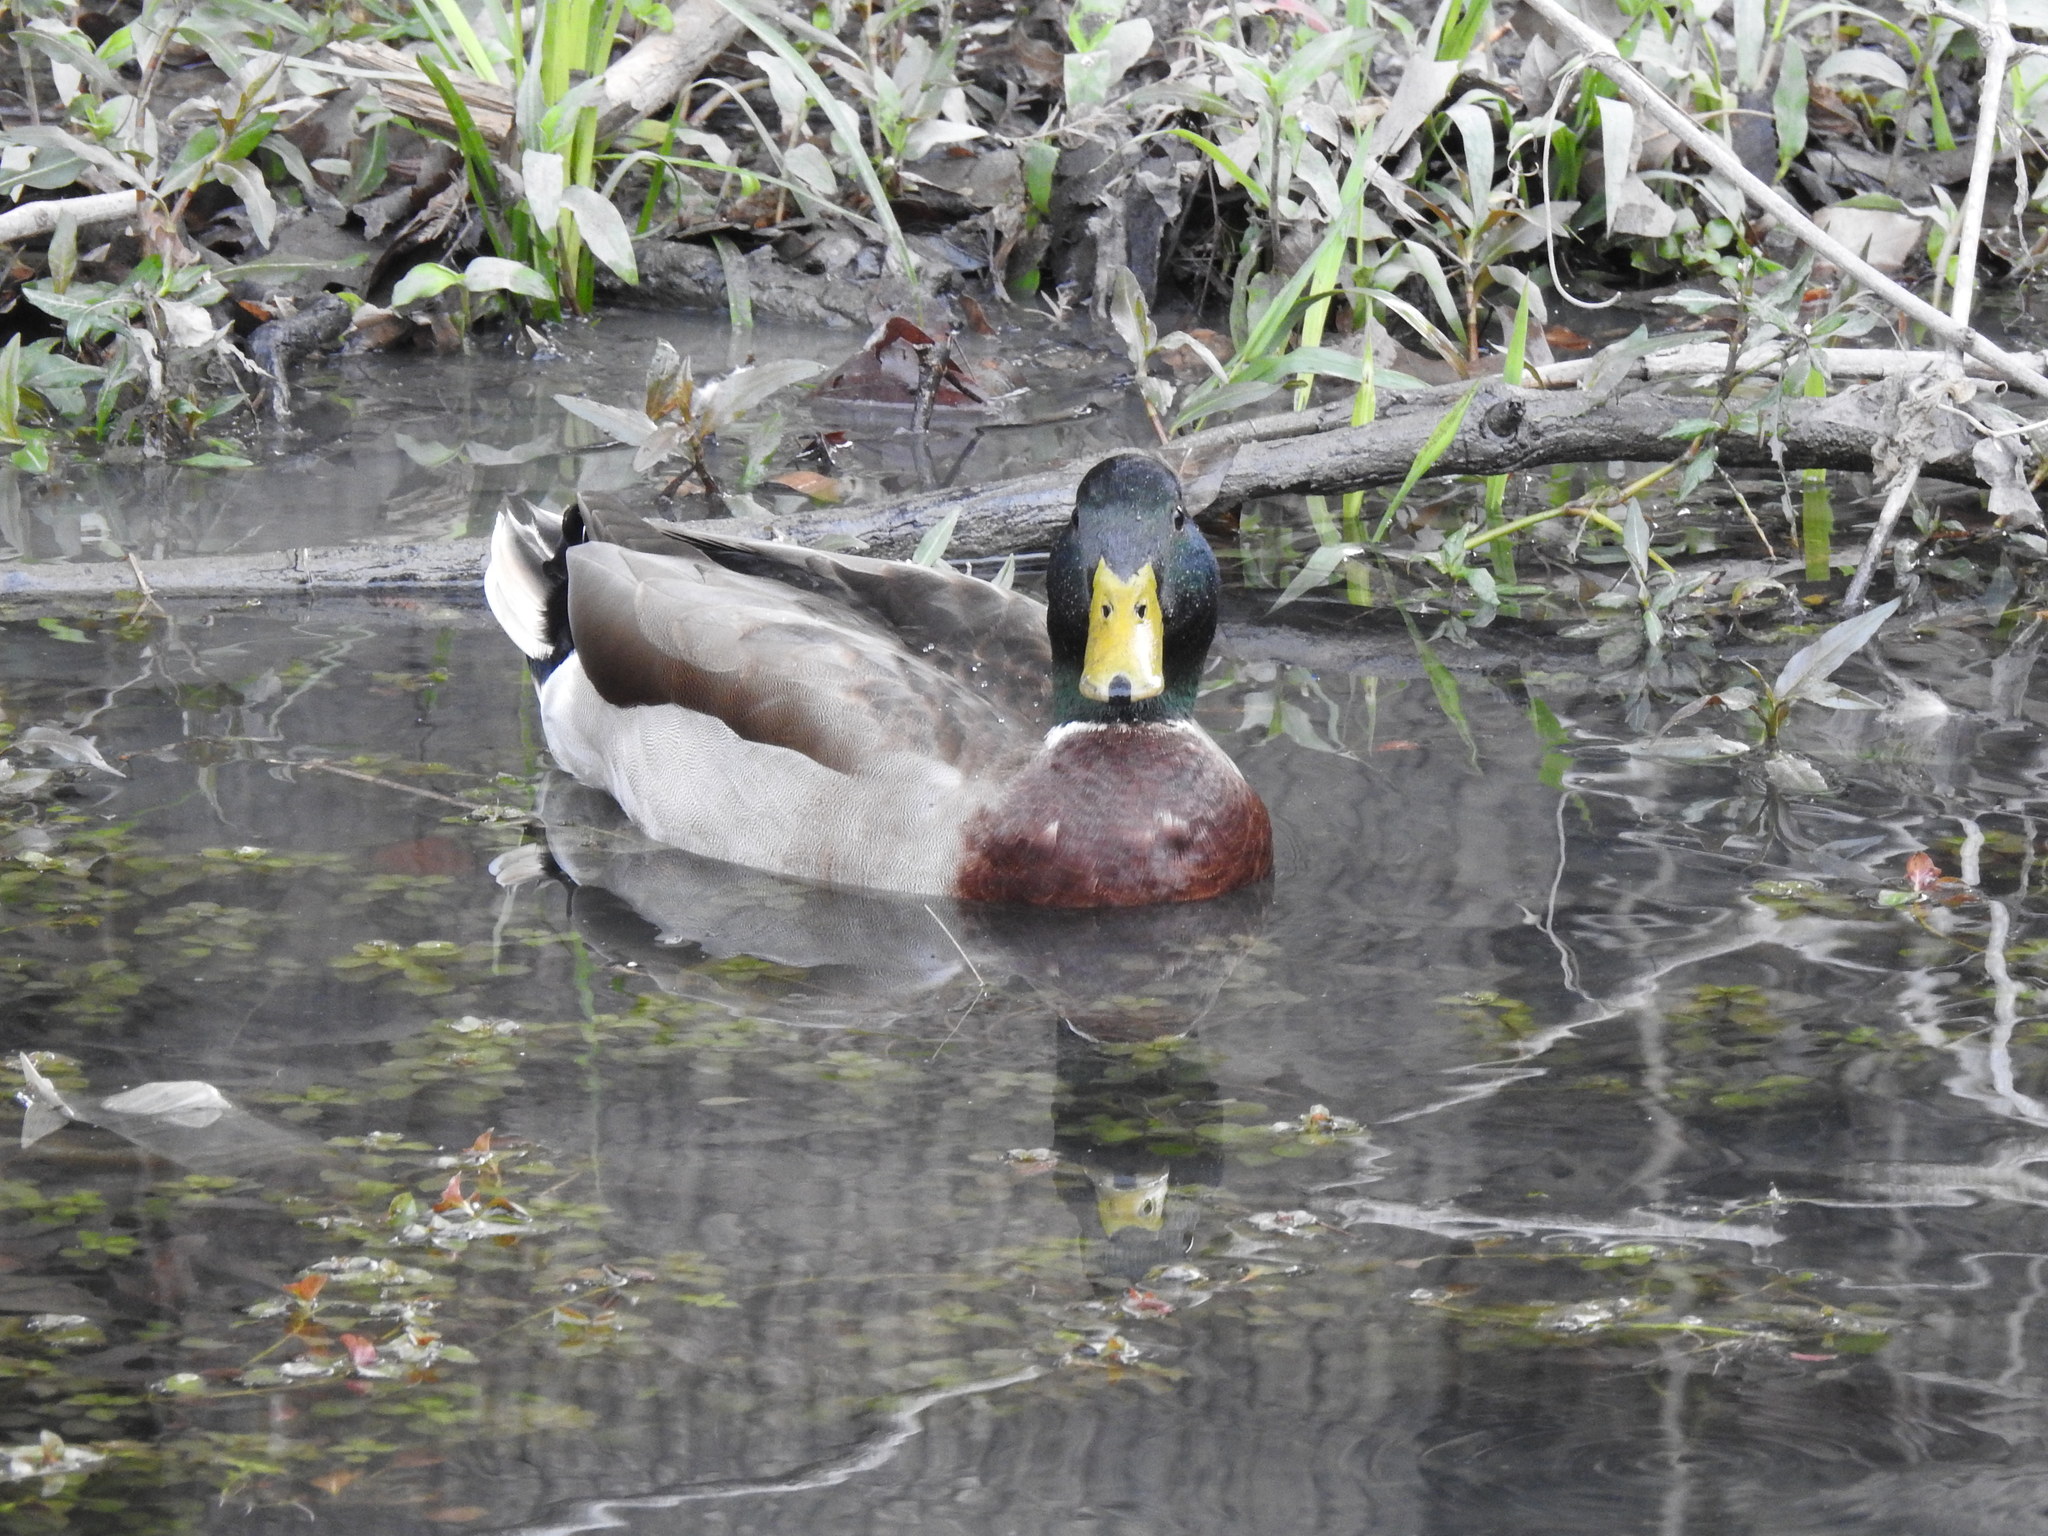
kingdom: Animalia
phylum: Chordata
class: Aves
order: Anseriformes
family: Anatidae
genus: Anas
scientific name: Anas platyrhynchos
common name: Mallard
